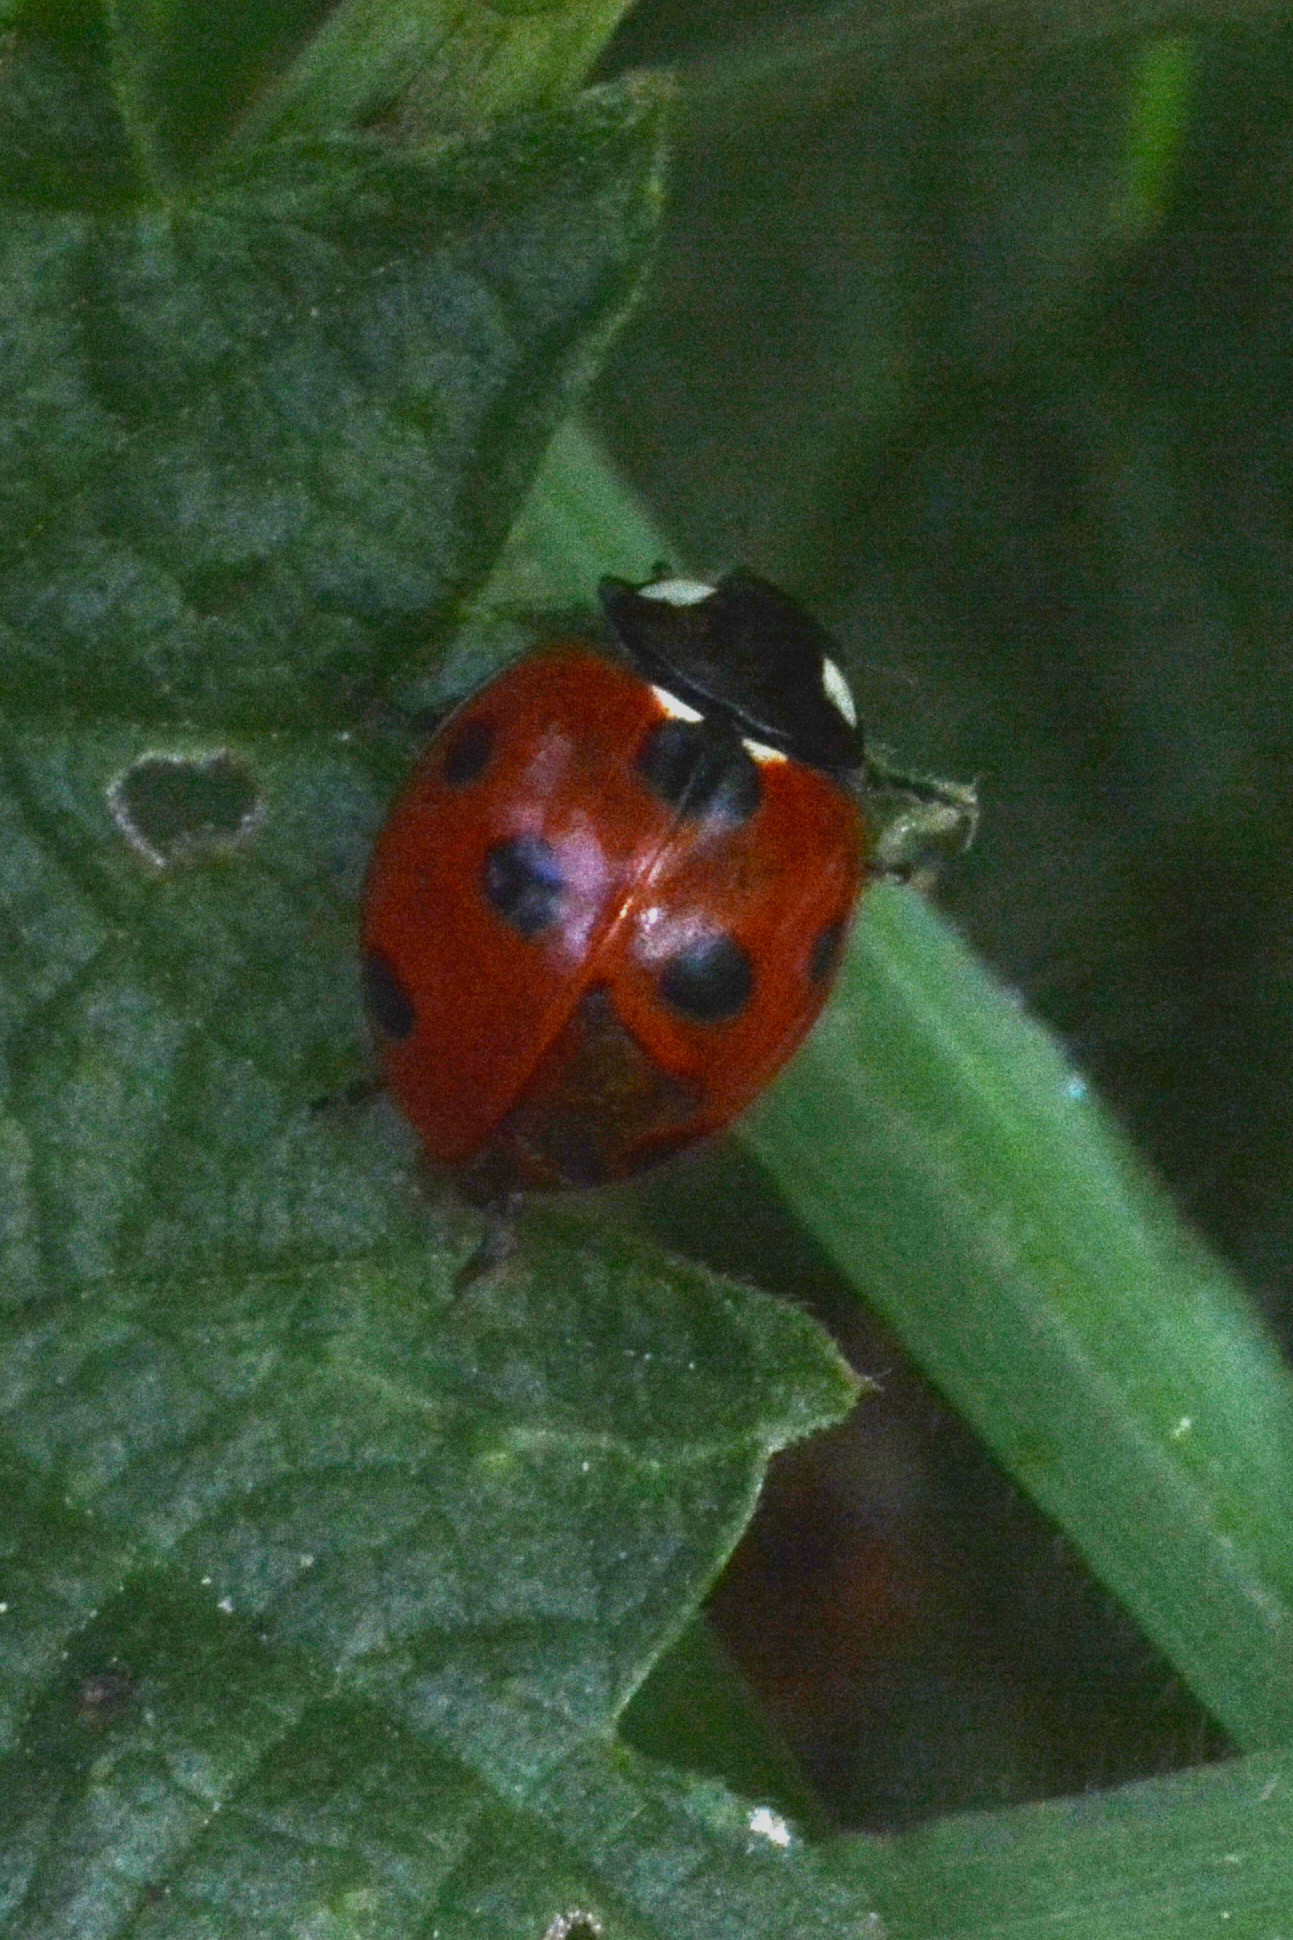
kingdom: Animalia
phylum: Arthropoda
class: Insecta
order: Coleoptera
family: Coccinellidae
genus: Coccinella
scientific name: Coccinella septempunctata
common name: Sevenspotted lady beetle
